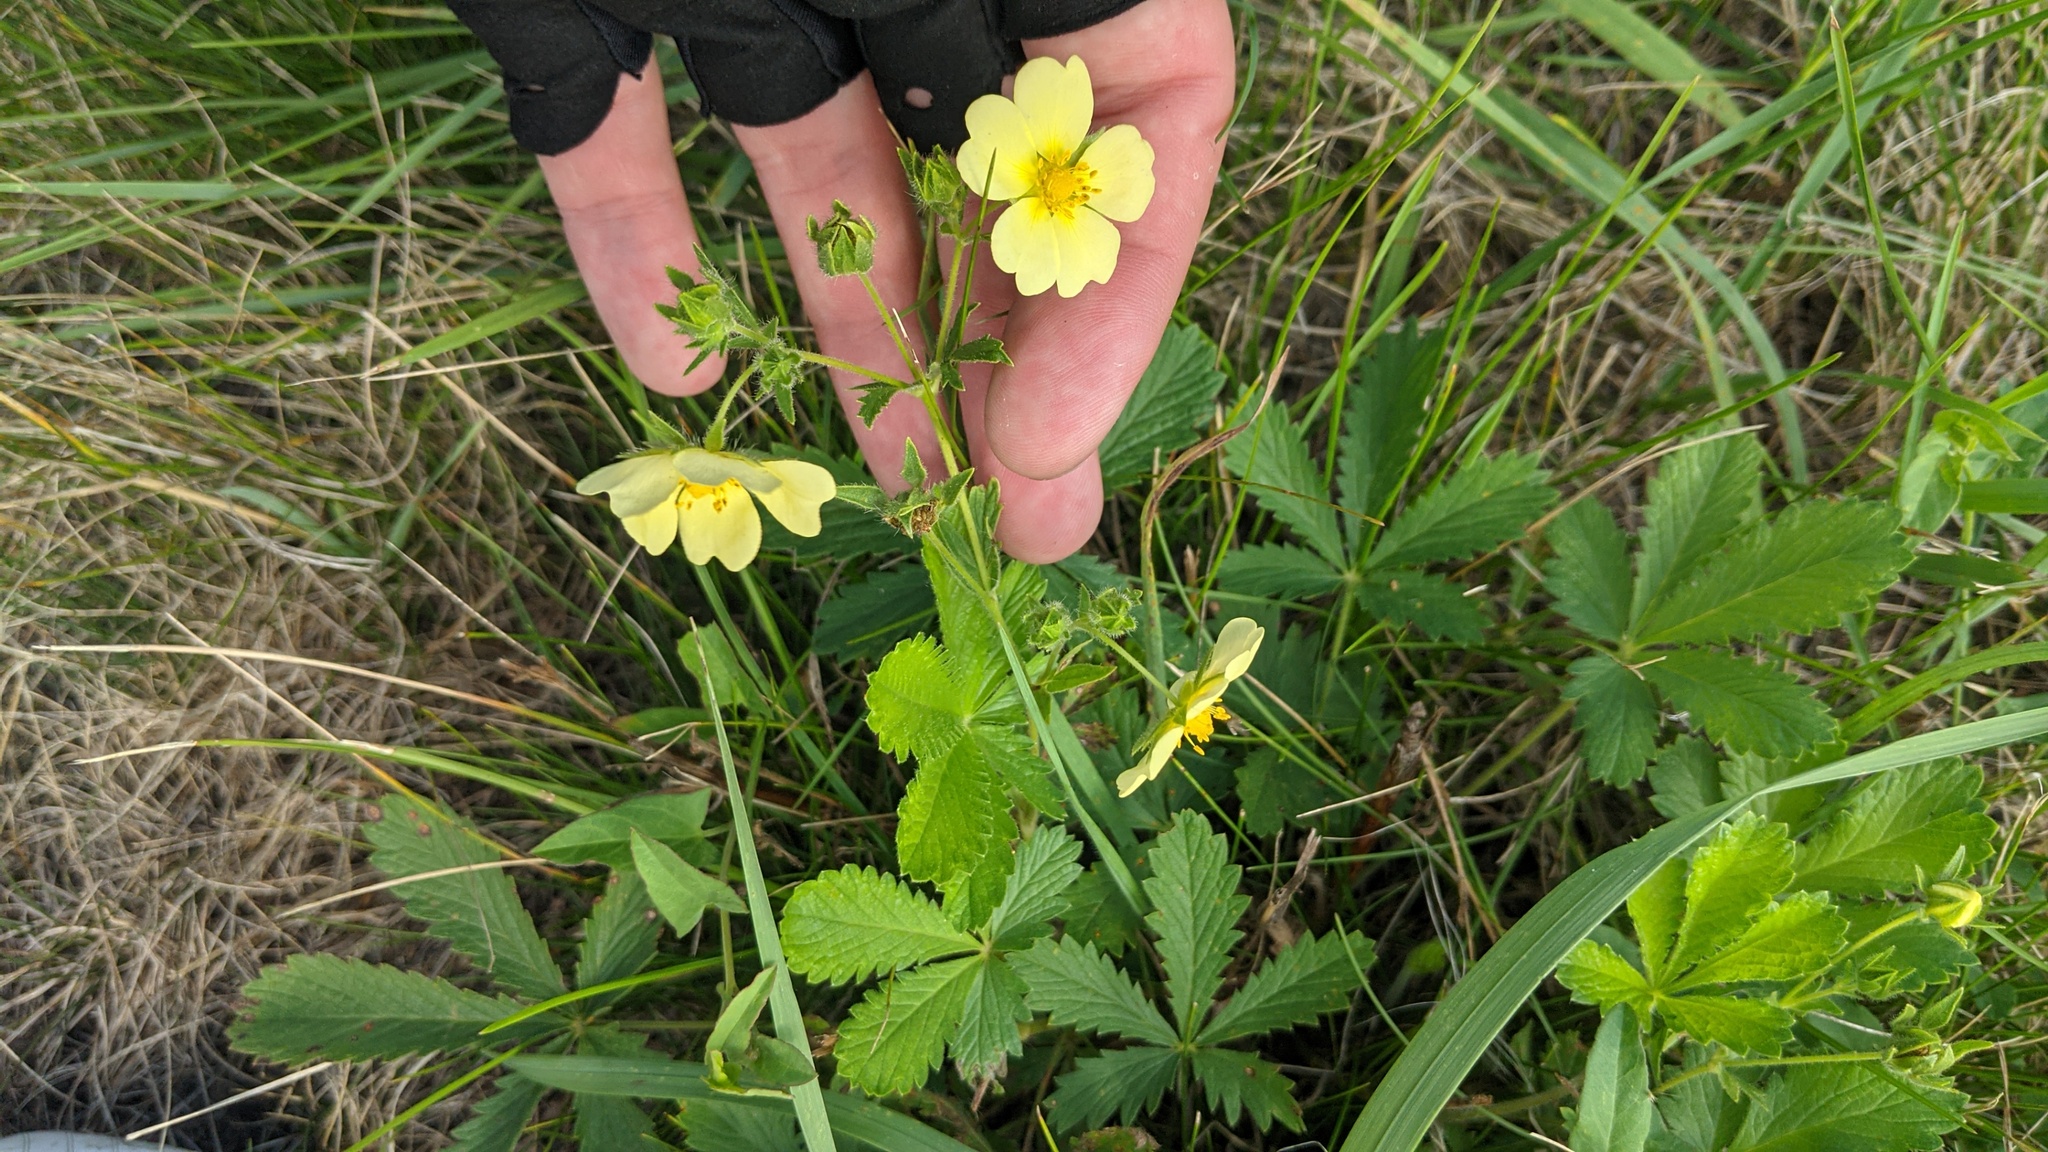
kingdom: Plantae
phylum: Tracheophyta
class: Magnoliopsida
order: Rosales
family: Rosaceae
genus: Potentilla
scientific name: Potentilla recta
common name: Sulphur cinquefoil
